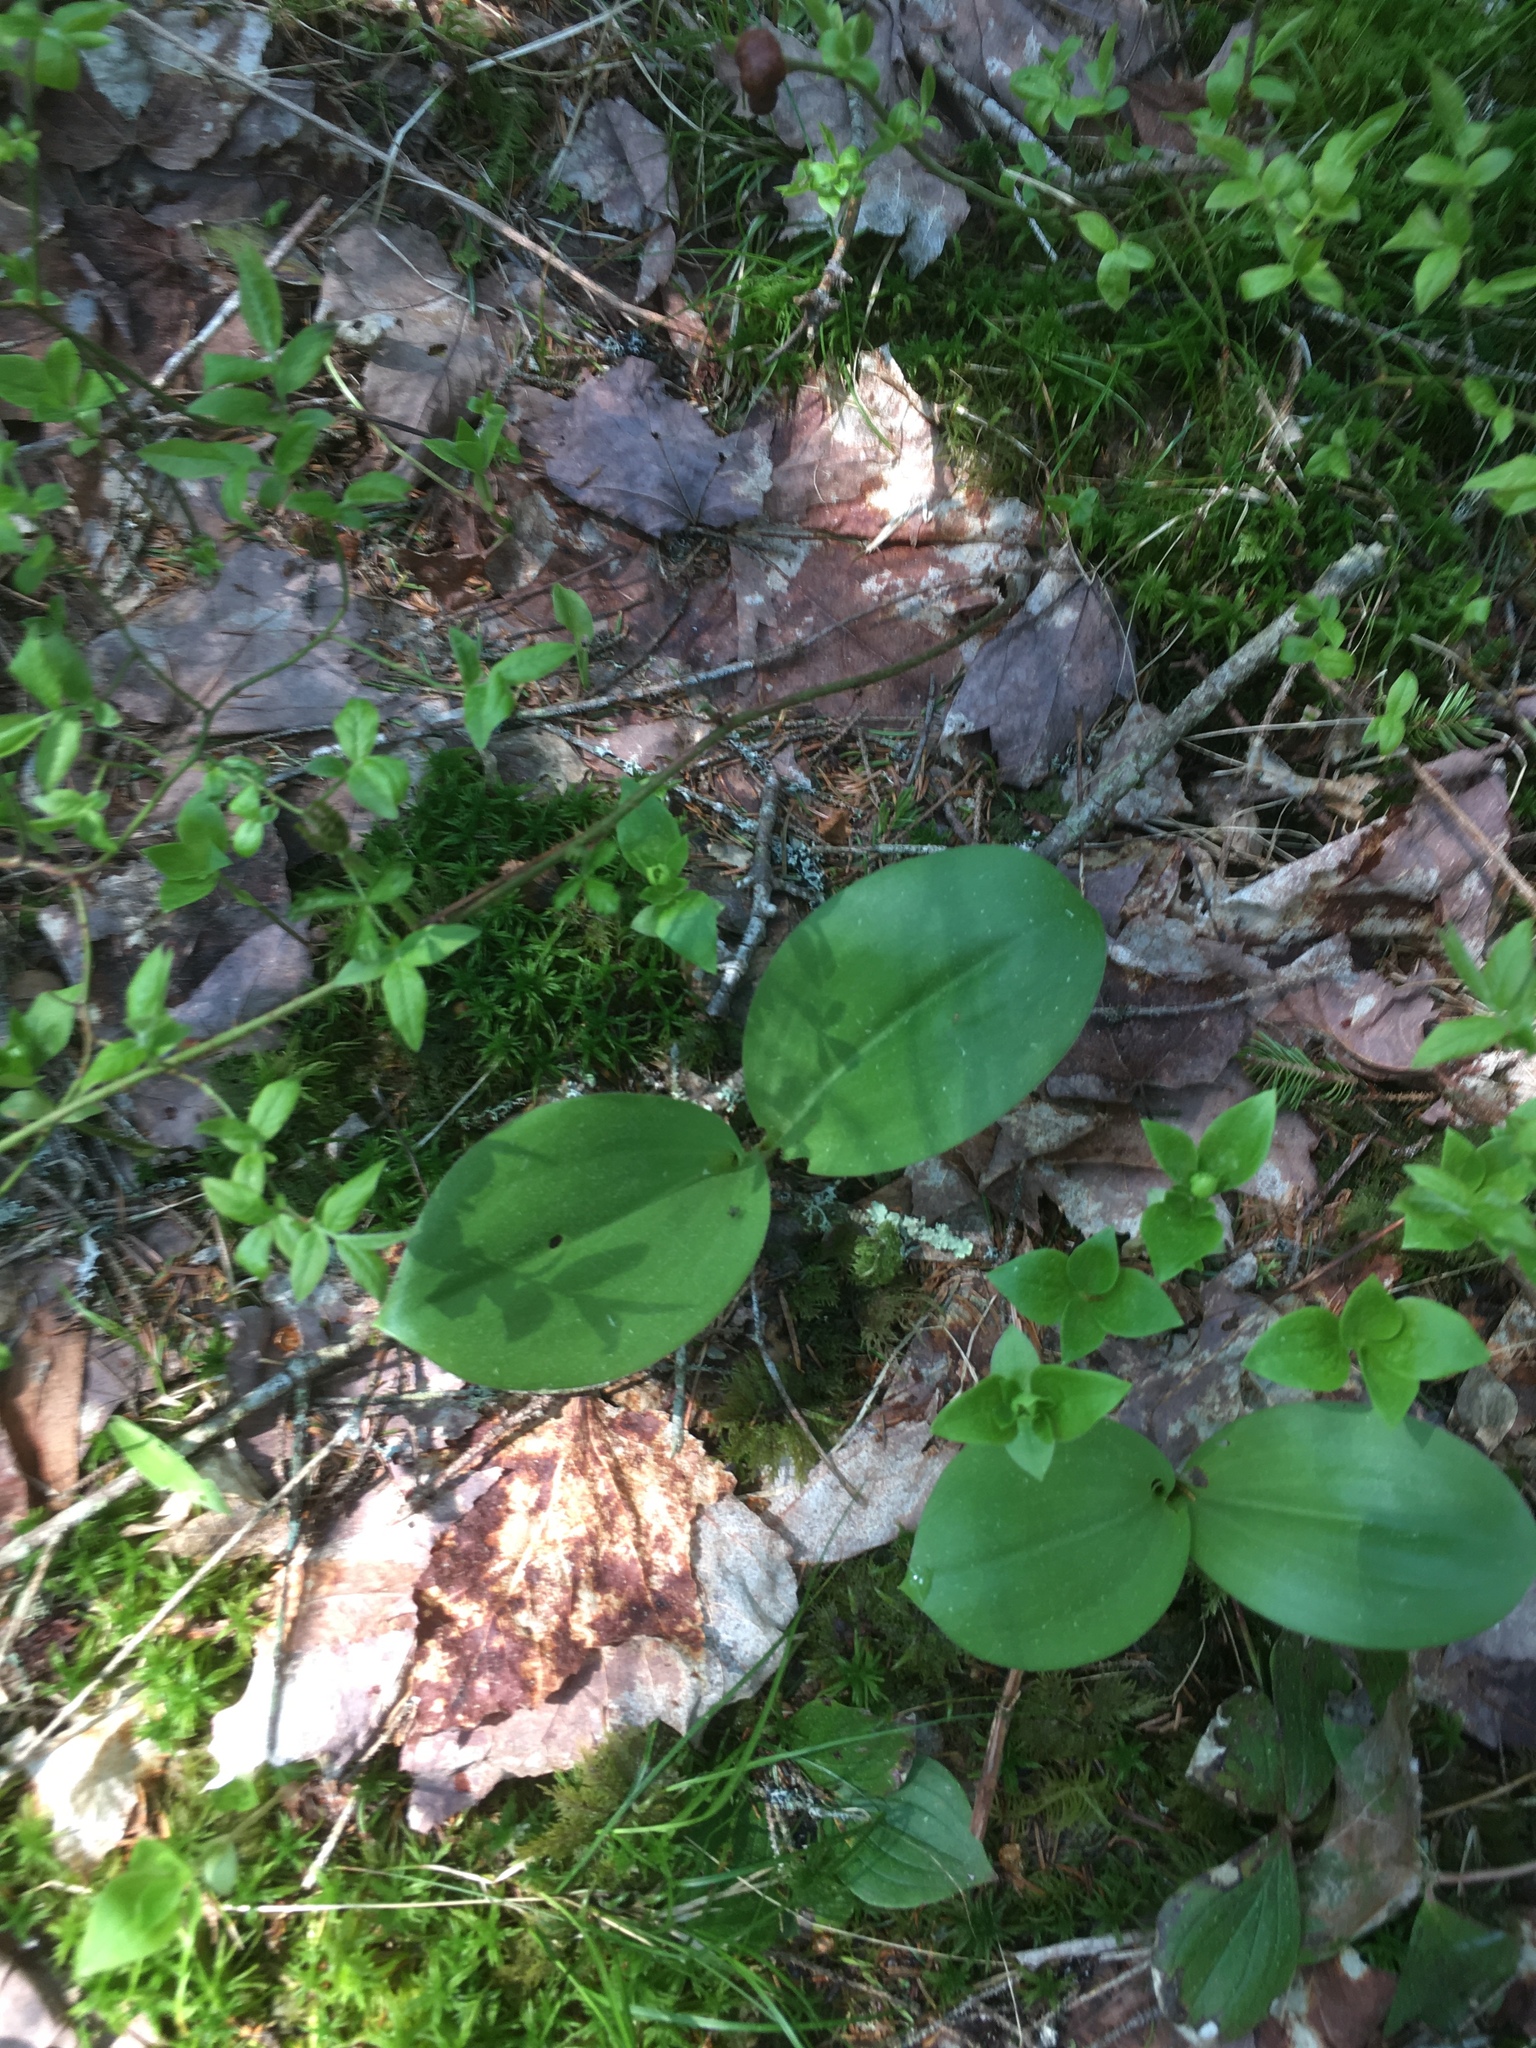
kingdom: Plantae
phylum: Tracheophyta
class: Liliopsida
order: Liliales
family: Liliaceae
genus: Clintonia
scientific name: Clintonia borealis
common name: Yellow clintonia
